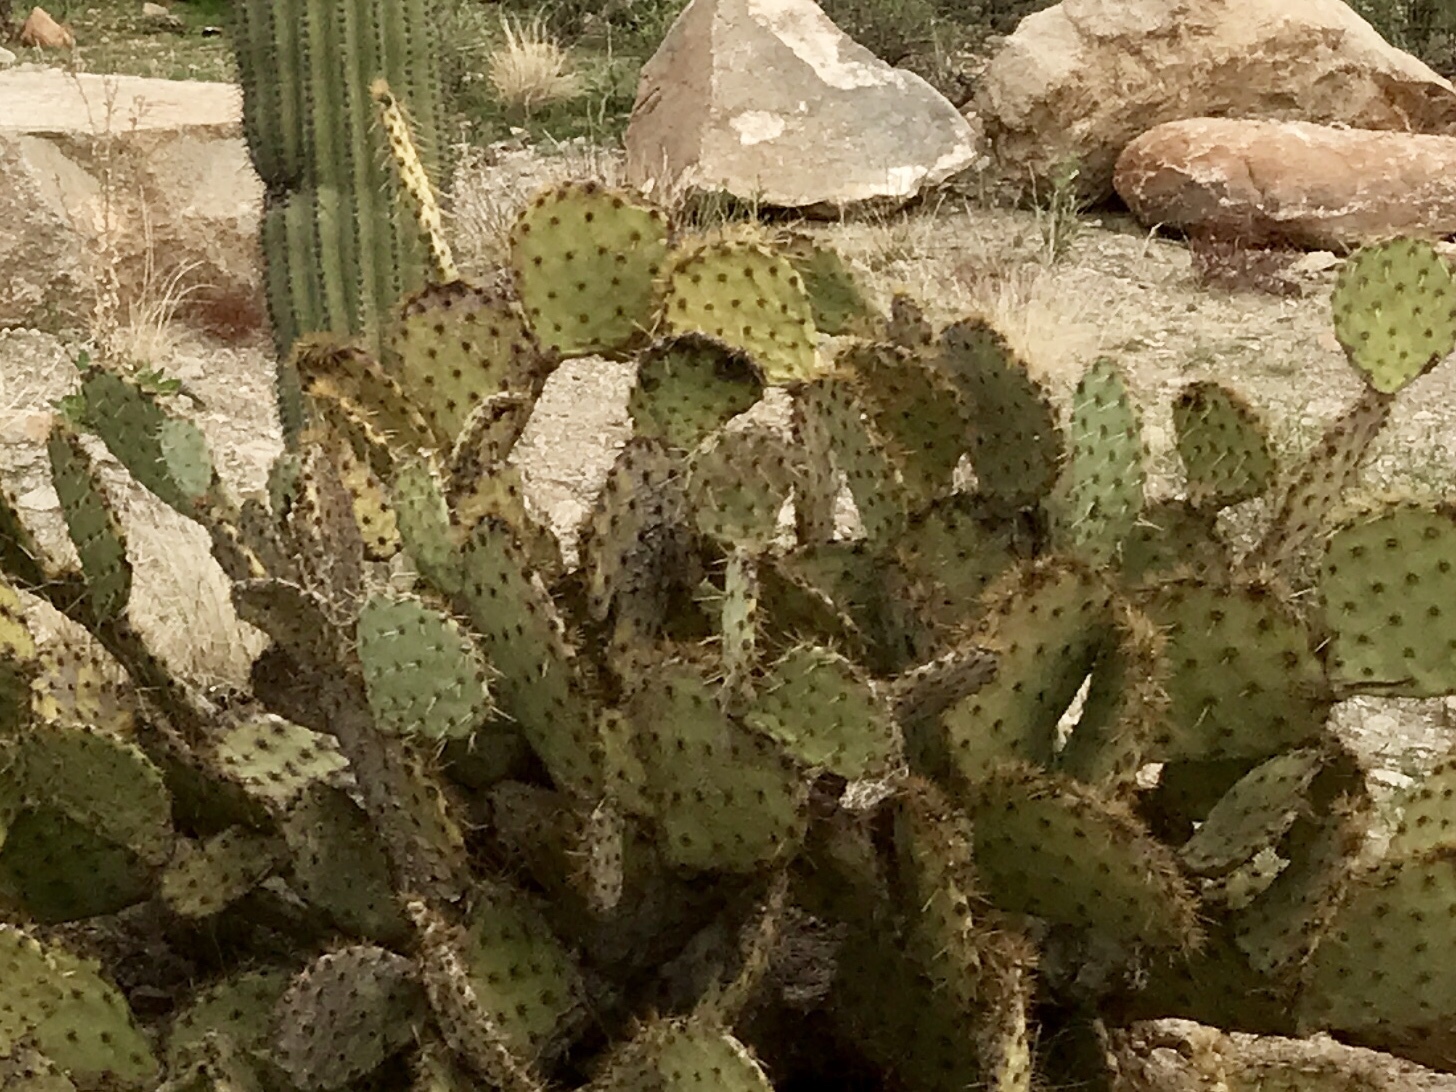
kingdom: Plantae
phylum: Tracheophyta
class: Magnoliopsida
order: Caryophyllales
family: Cactaceae
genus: Opuntia
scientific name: Opuntia phaeacantha
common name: New mexico prickly-pear
